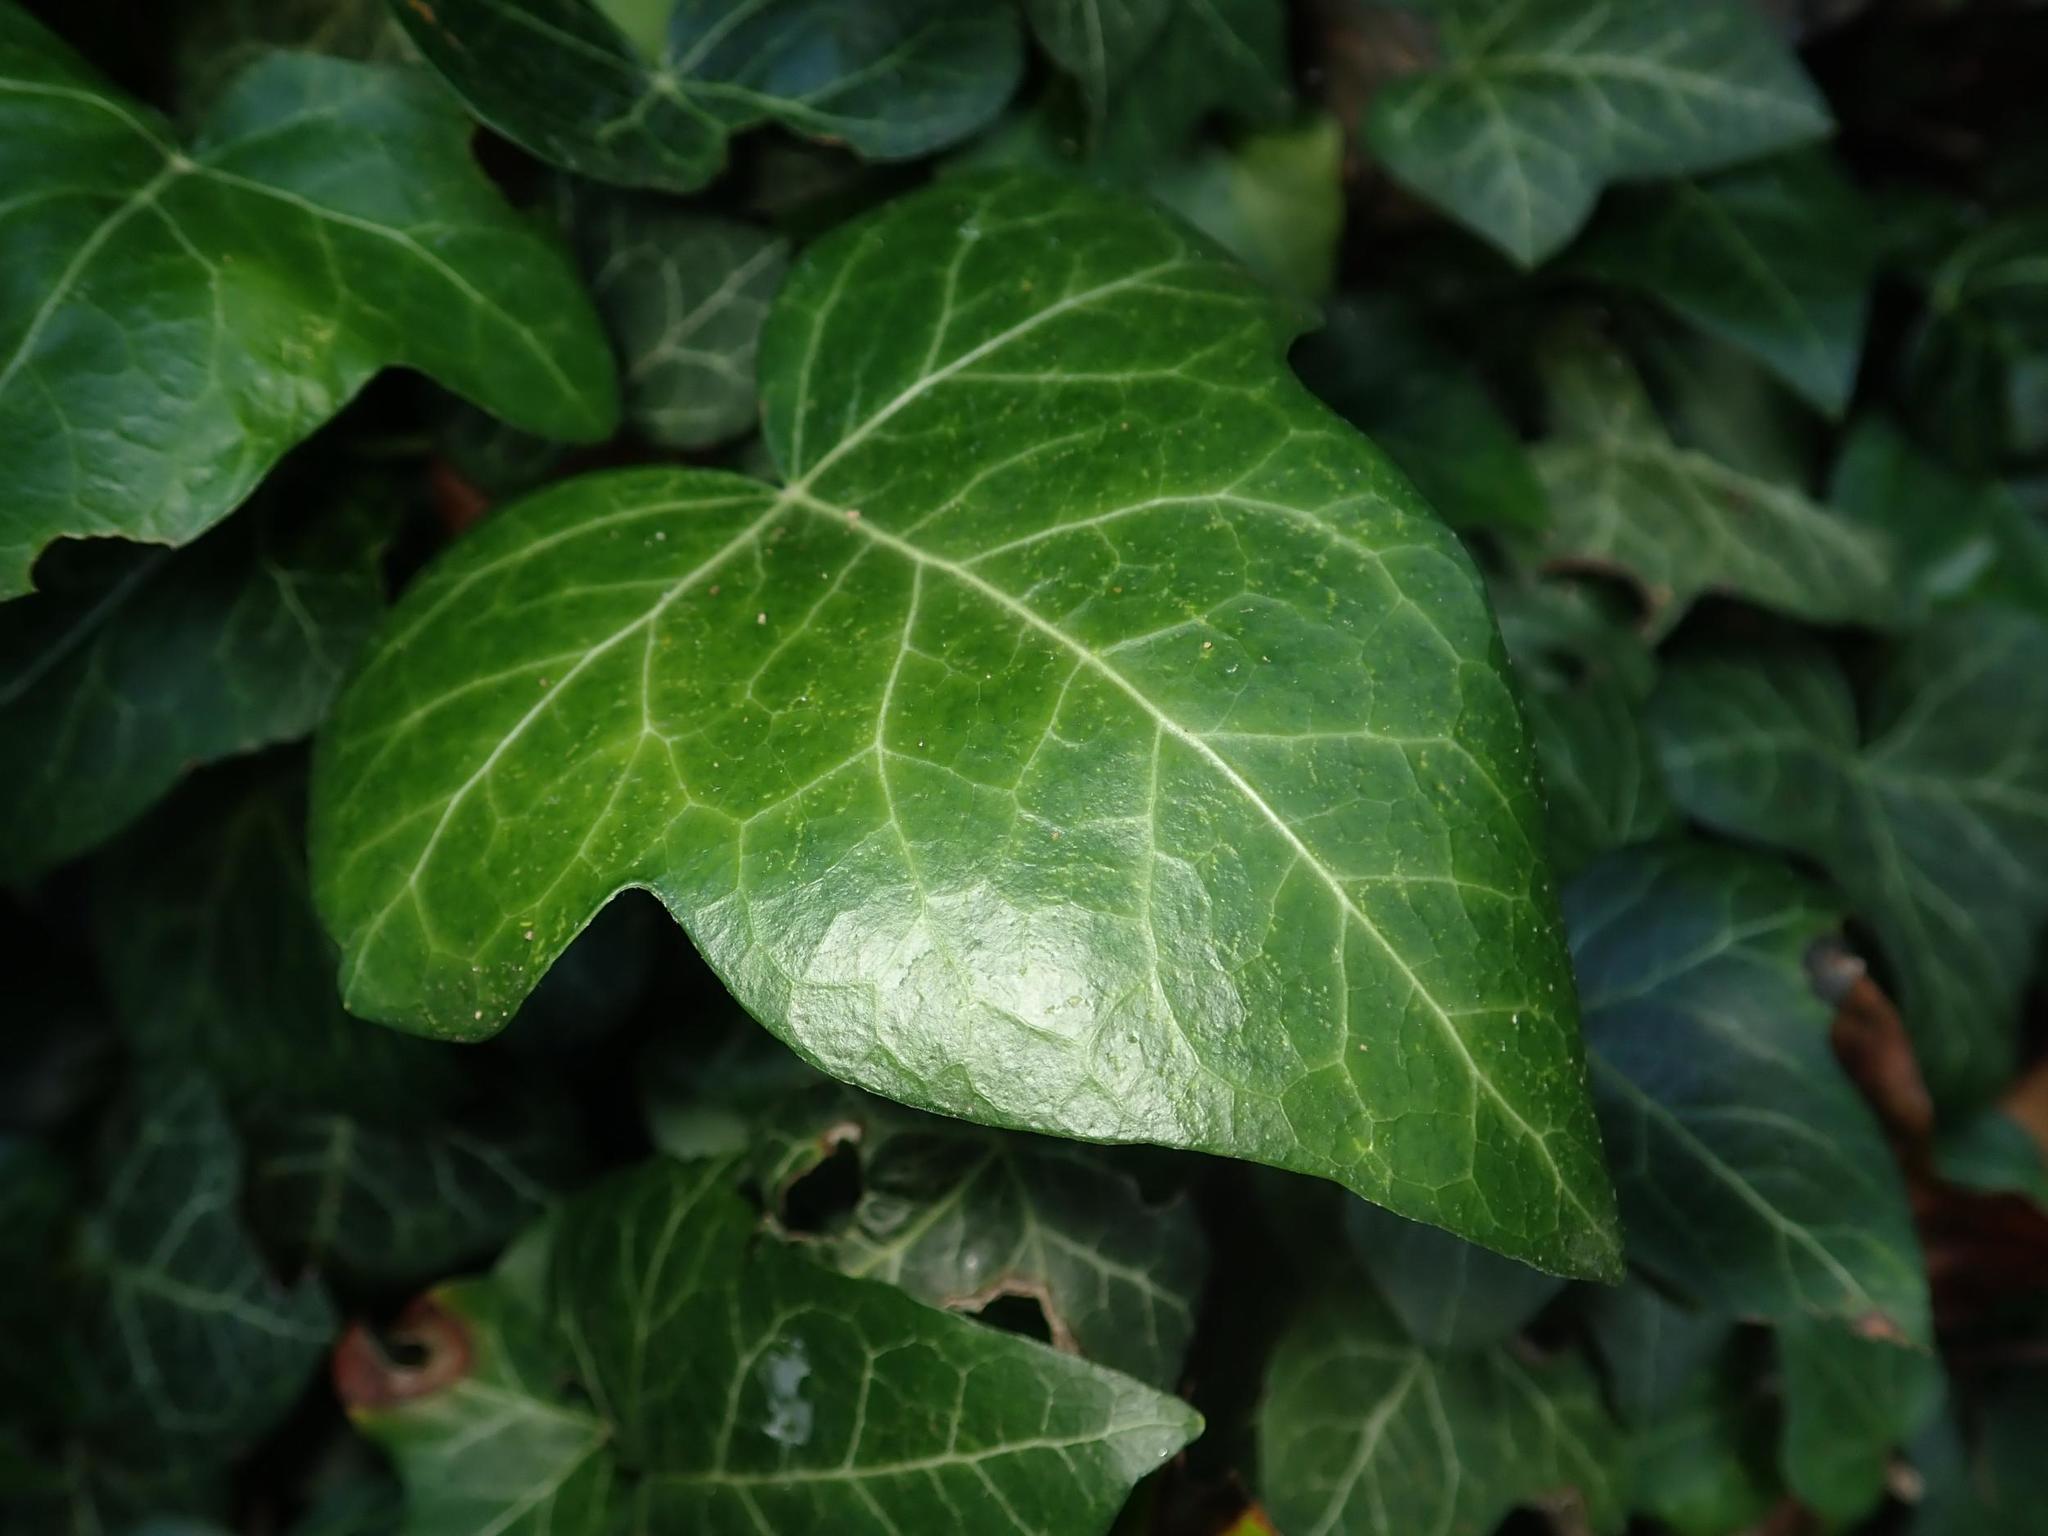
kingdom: Plantae
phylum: Tracheophyta
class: Magnoliopsida
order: Apiales
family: Araliaceae
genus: Hedera
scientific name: Hedera helix
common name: Ivy
